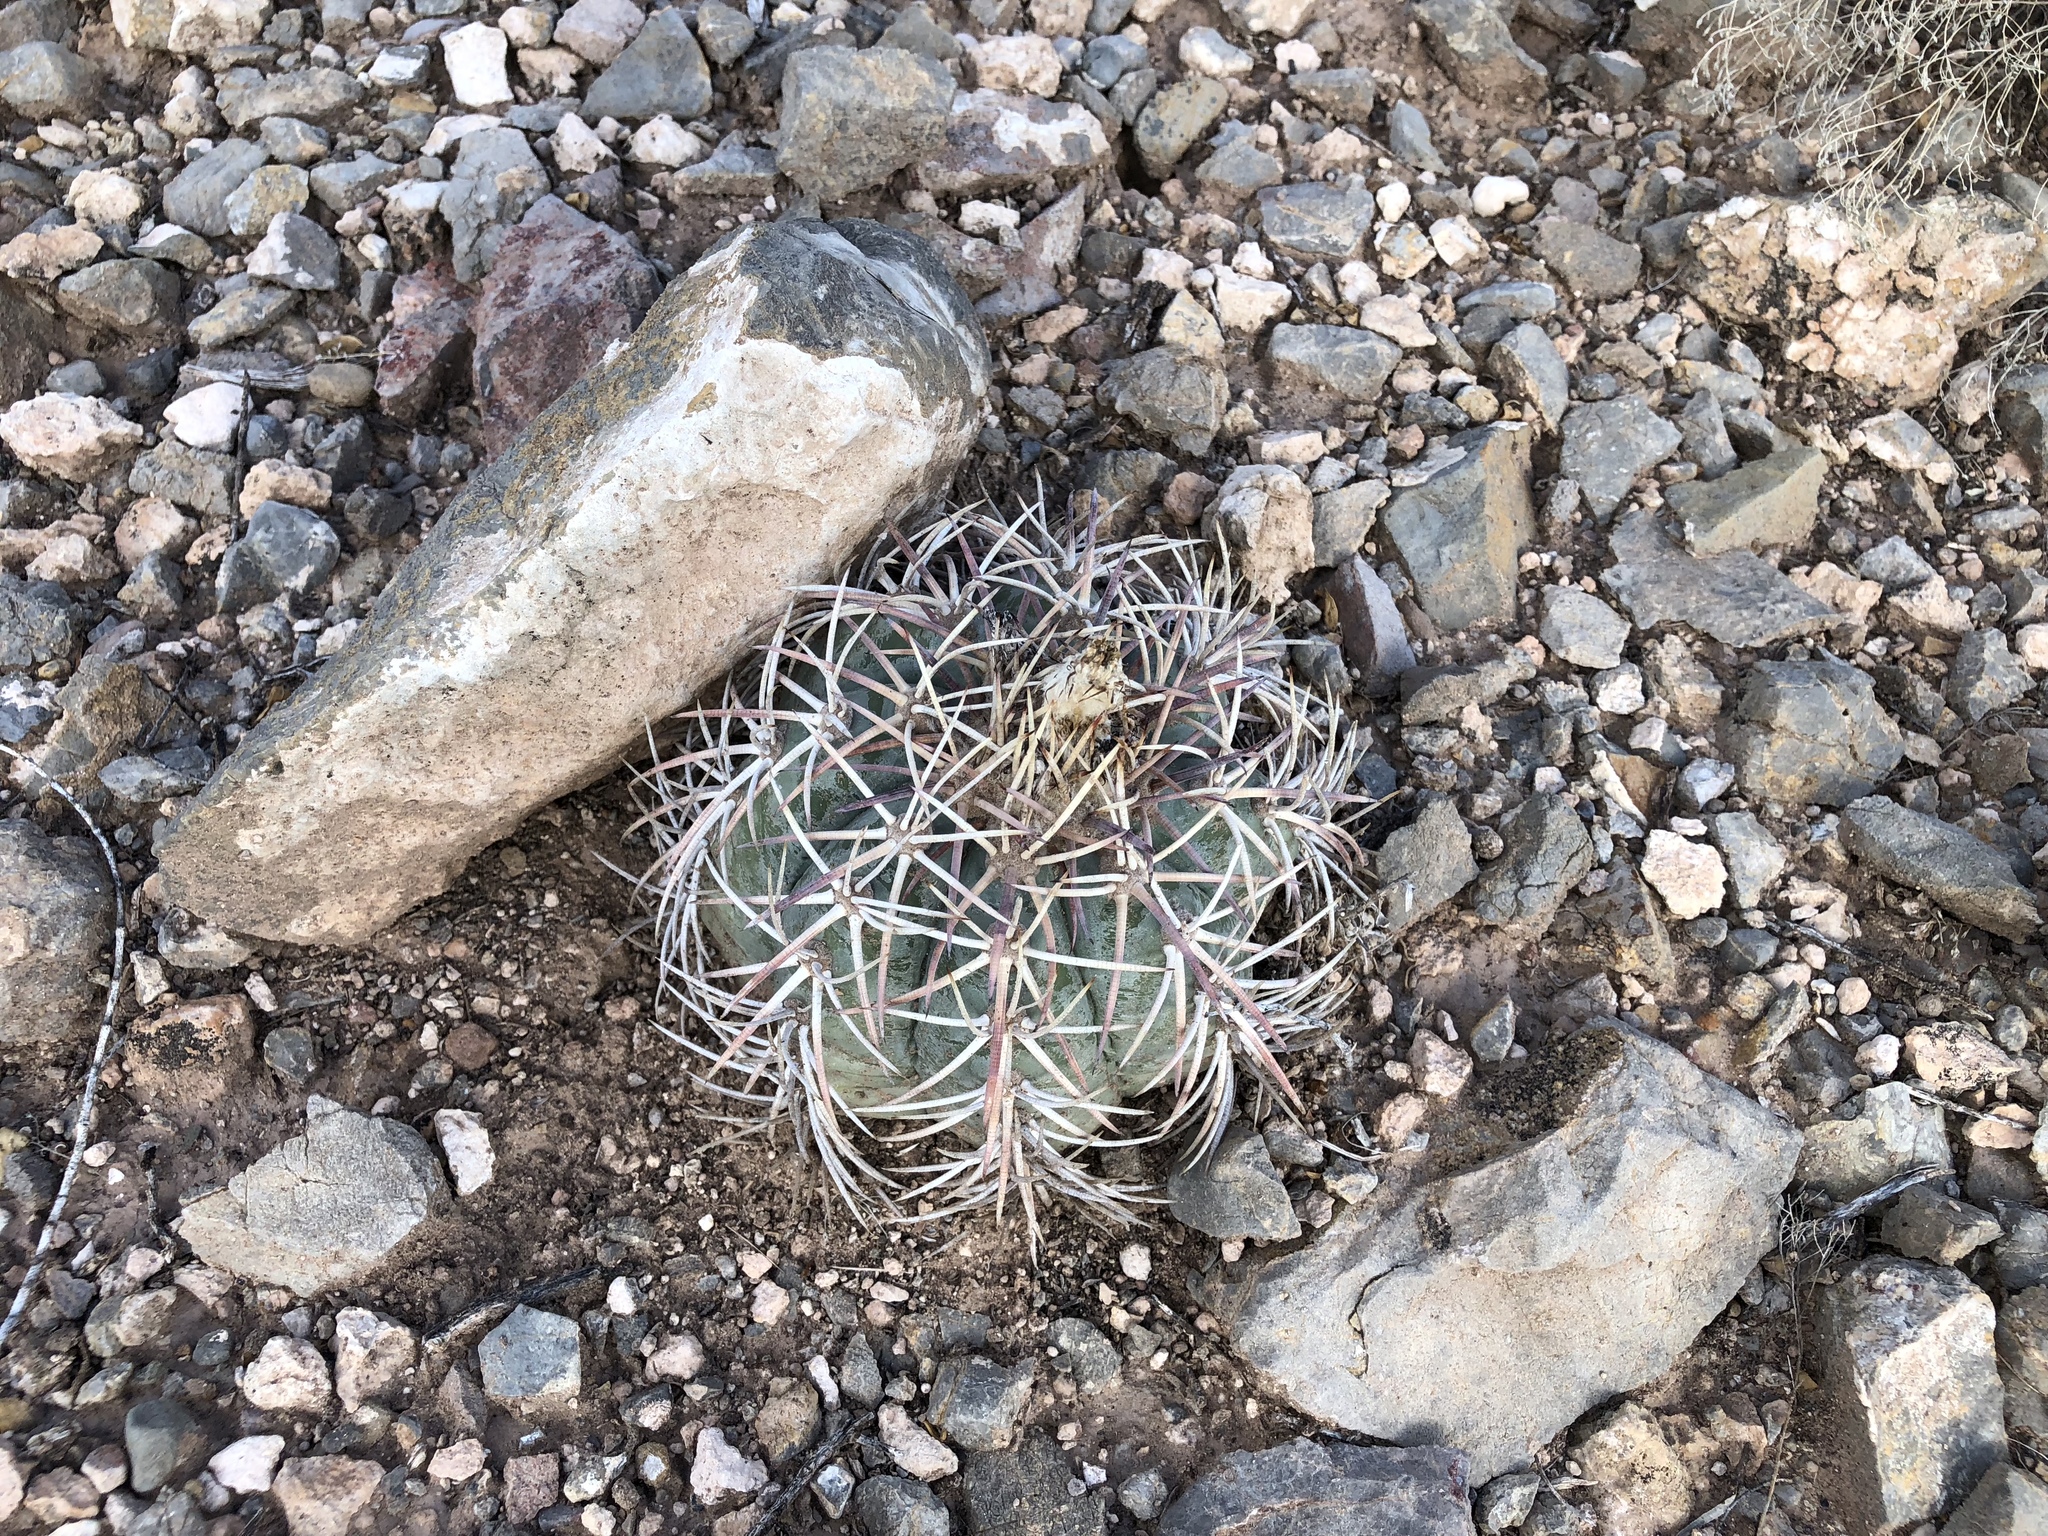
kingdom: Plantae
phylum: Tracheophyta
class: Magnoliopsida
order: Caryophyllales
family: Cactaceae
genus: Echinocactus
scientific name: Echinocactus horizonthalonius
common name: Devilshead
